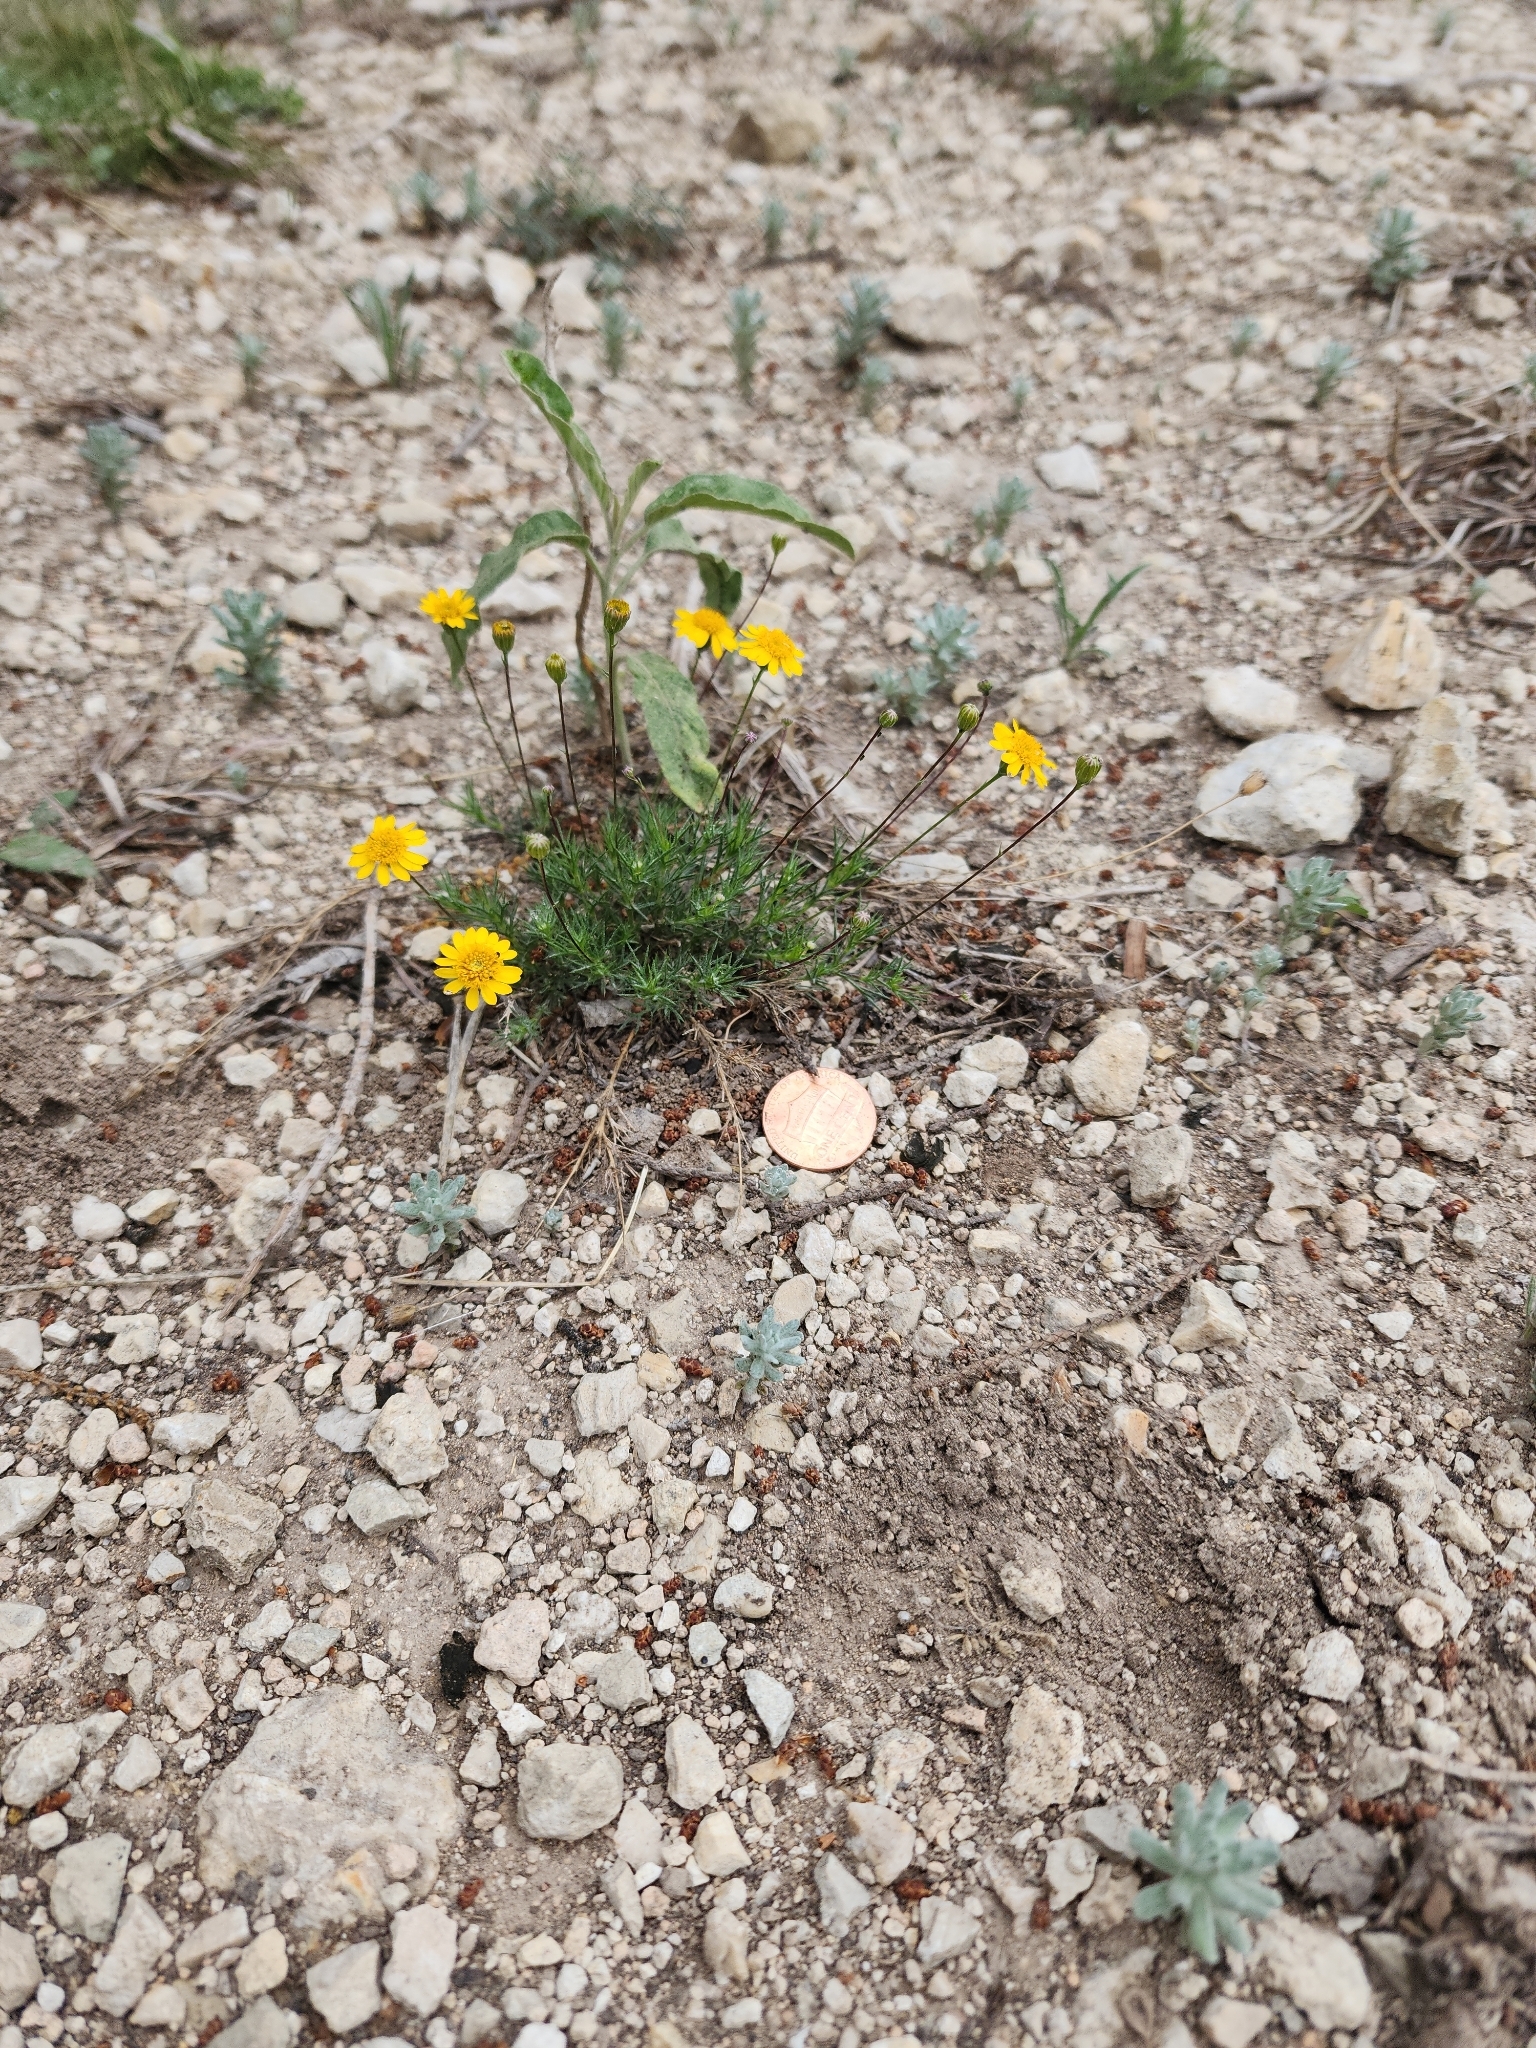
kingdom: Plantae
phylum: Tracheophyta
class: Magnoliopsida
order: Asterales
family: Asteraceae
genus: Thymophylla
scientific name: Thymophylla pentachaeta
